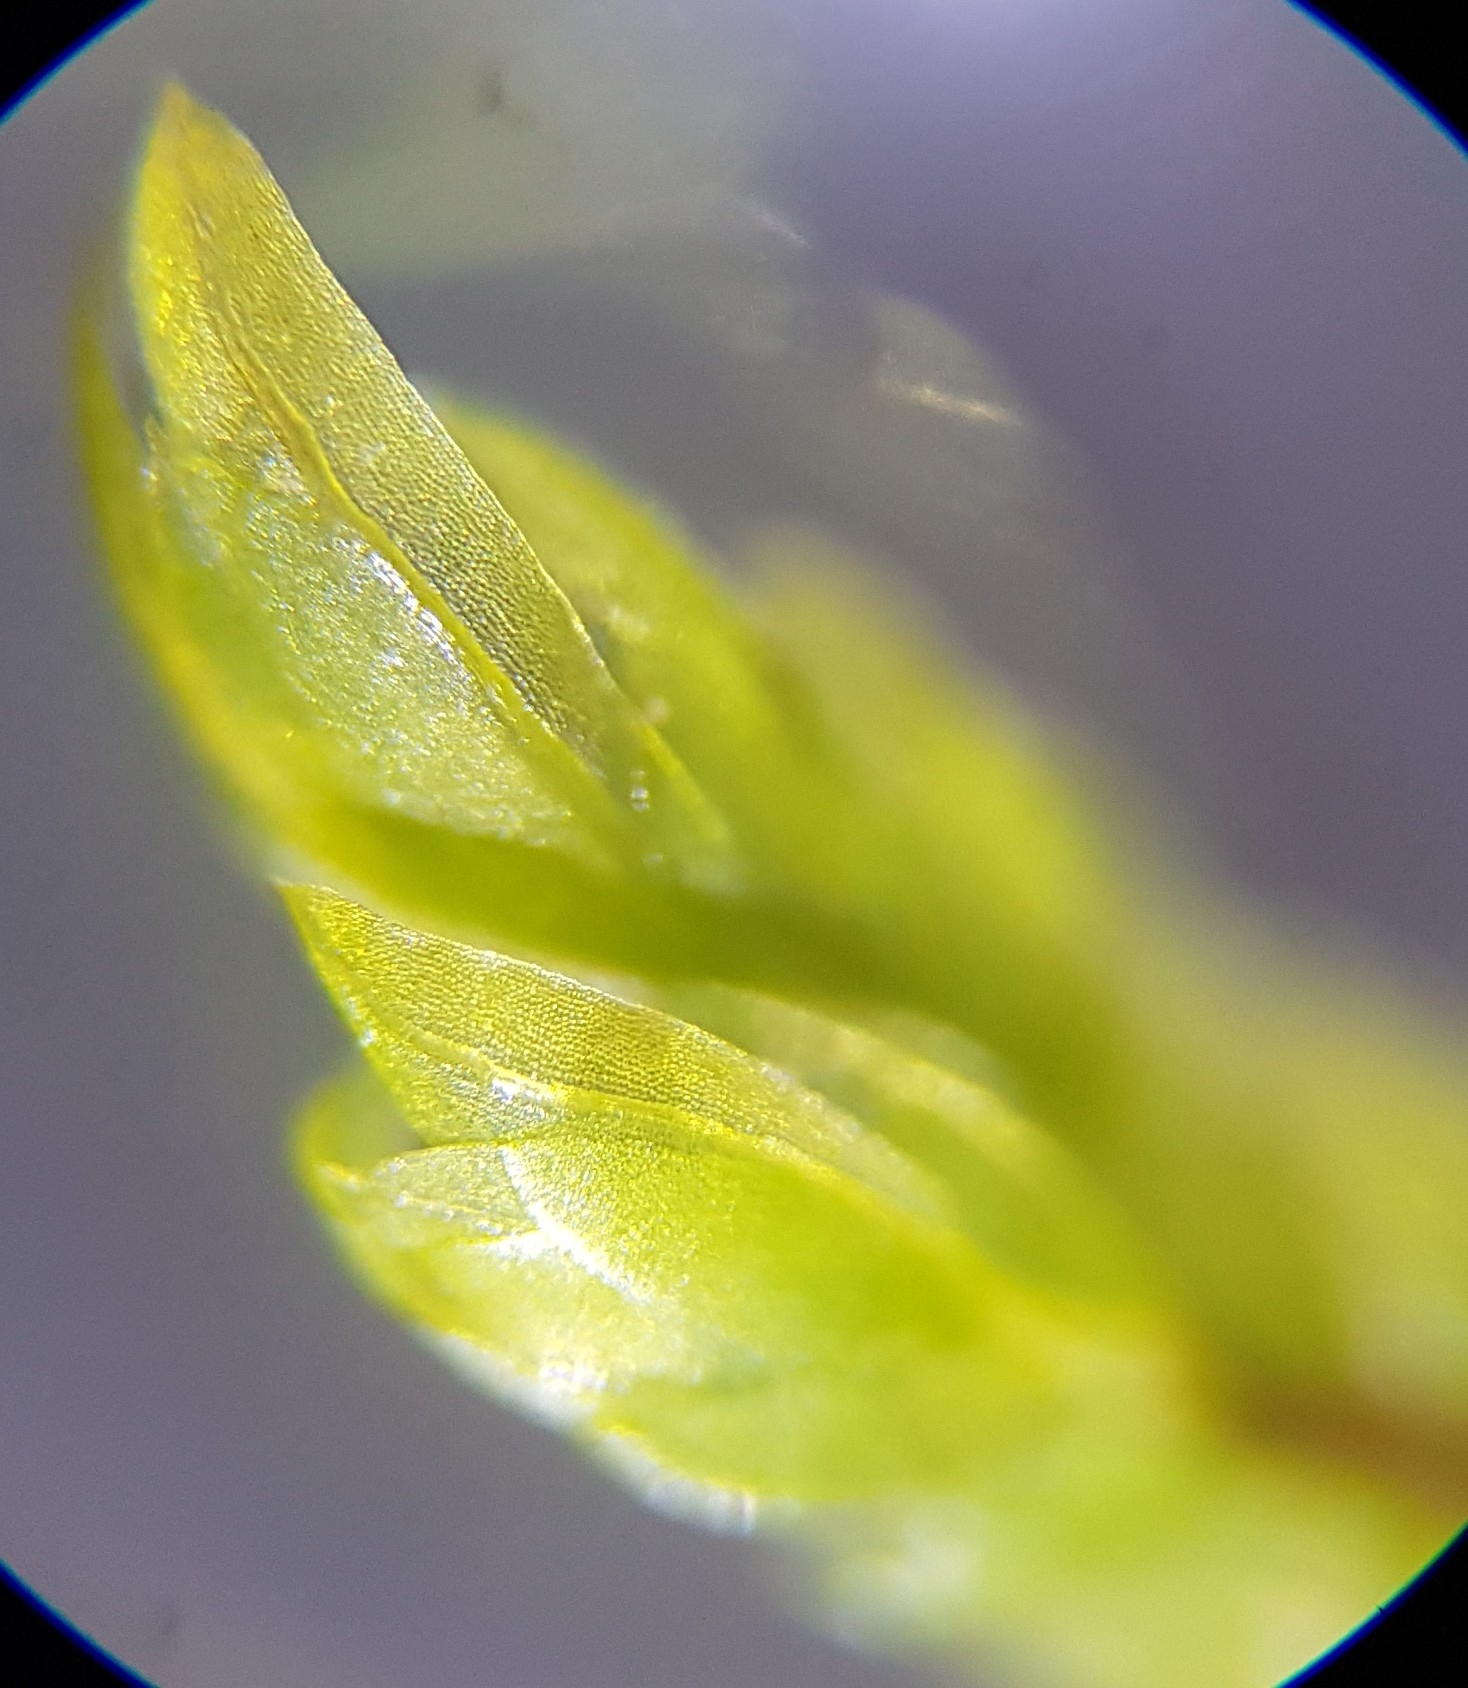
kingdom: Plantae
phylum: Bryophyta
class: Bryopsida
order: Dicranales
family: Fissidentaceae
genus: Fissidens
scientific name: Fissidens osmundioides
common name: Osmund fissidens moss
